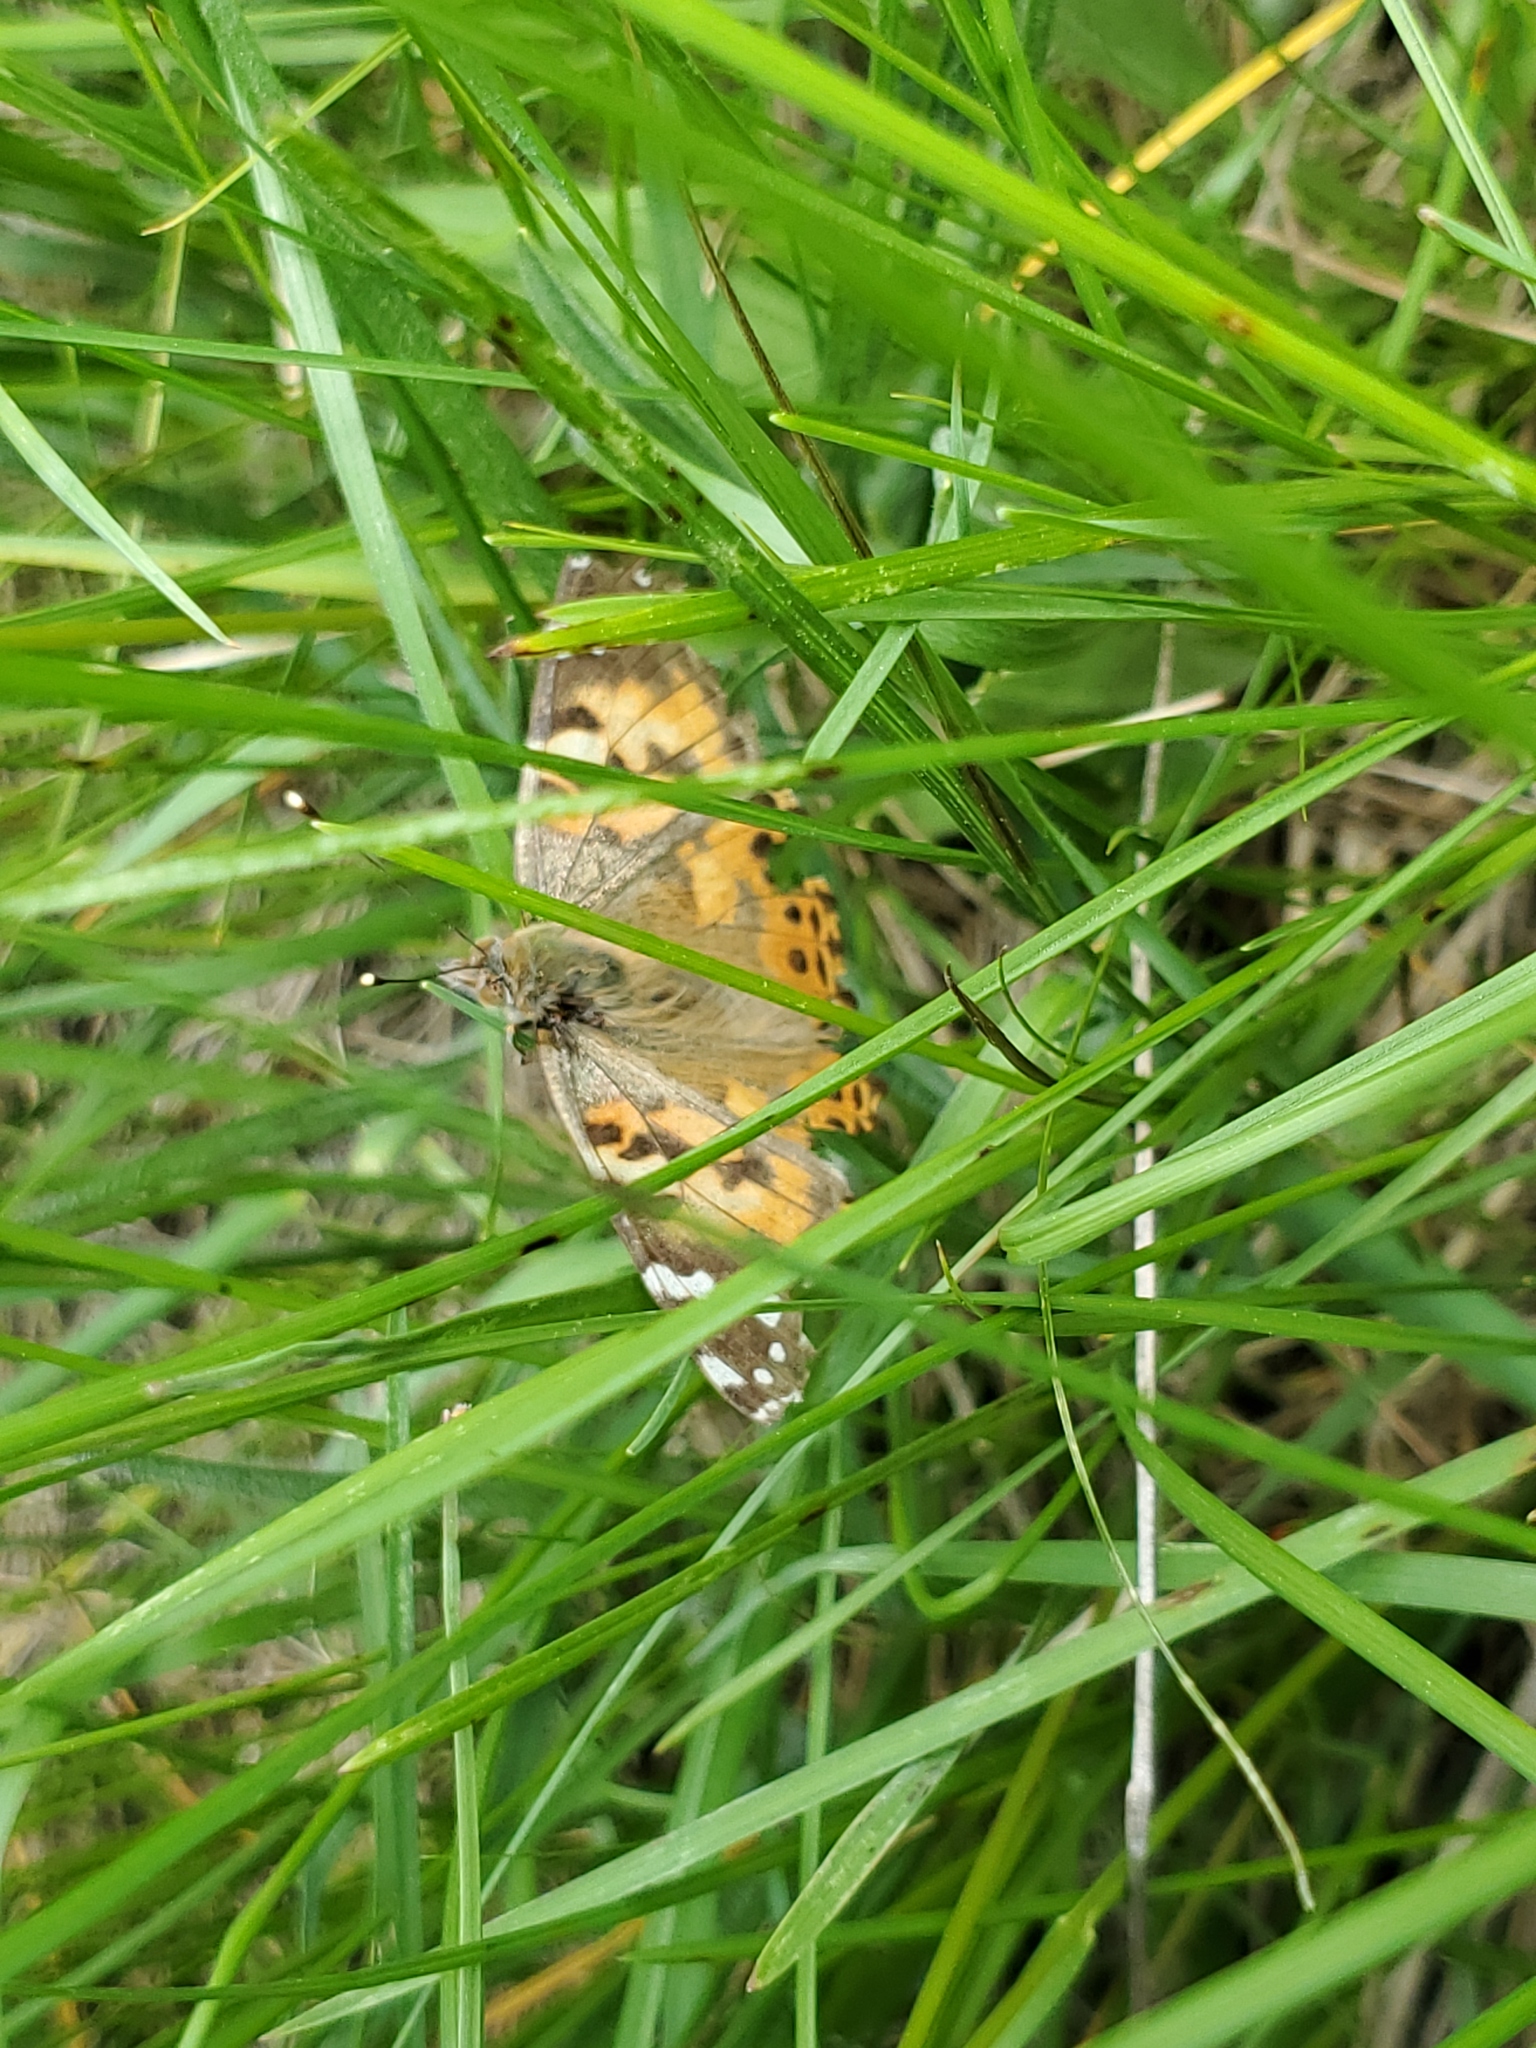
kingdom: Animalia
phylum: Arthropoda
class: Insecta
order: Lepidoptera
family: Nymphalidae
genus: Vanessa
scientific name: Vanessa cardui
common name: Painted lady
